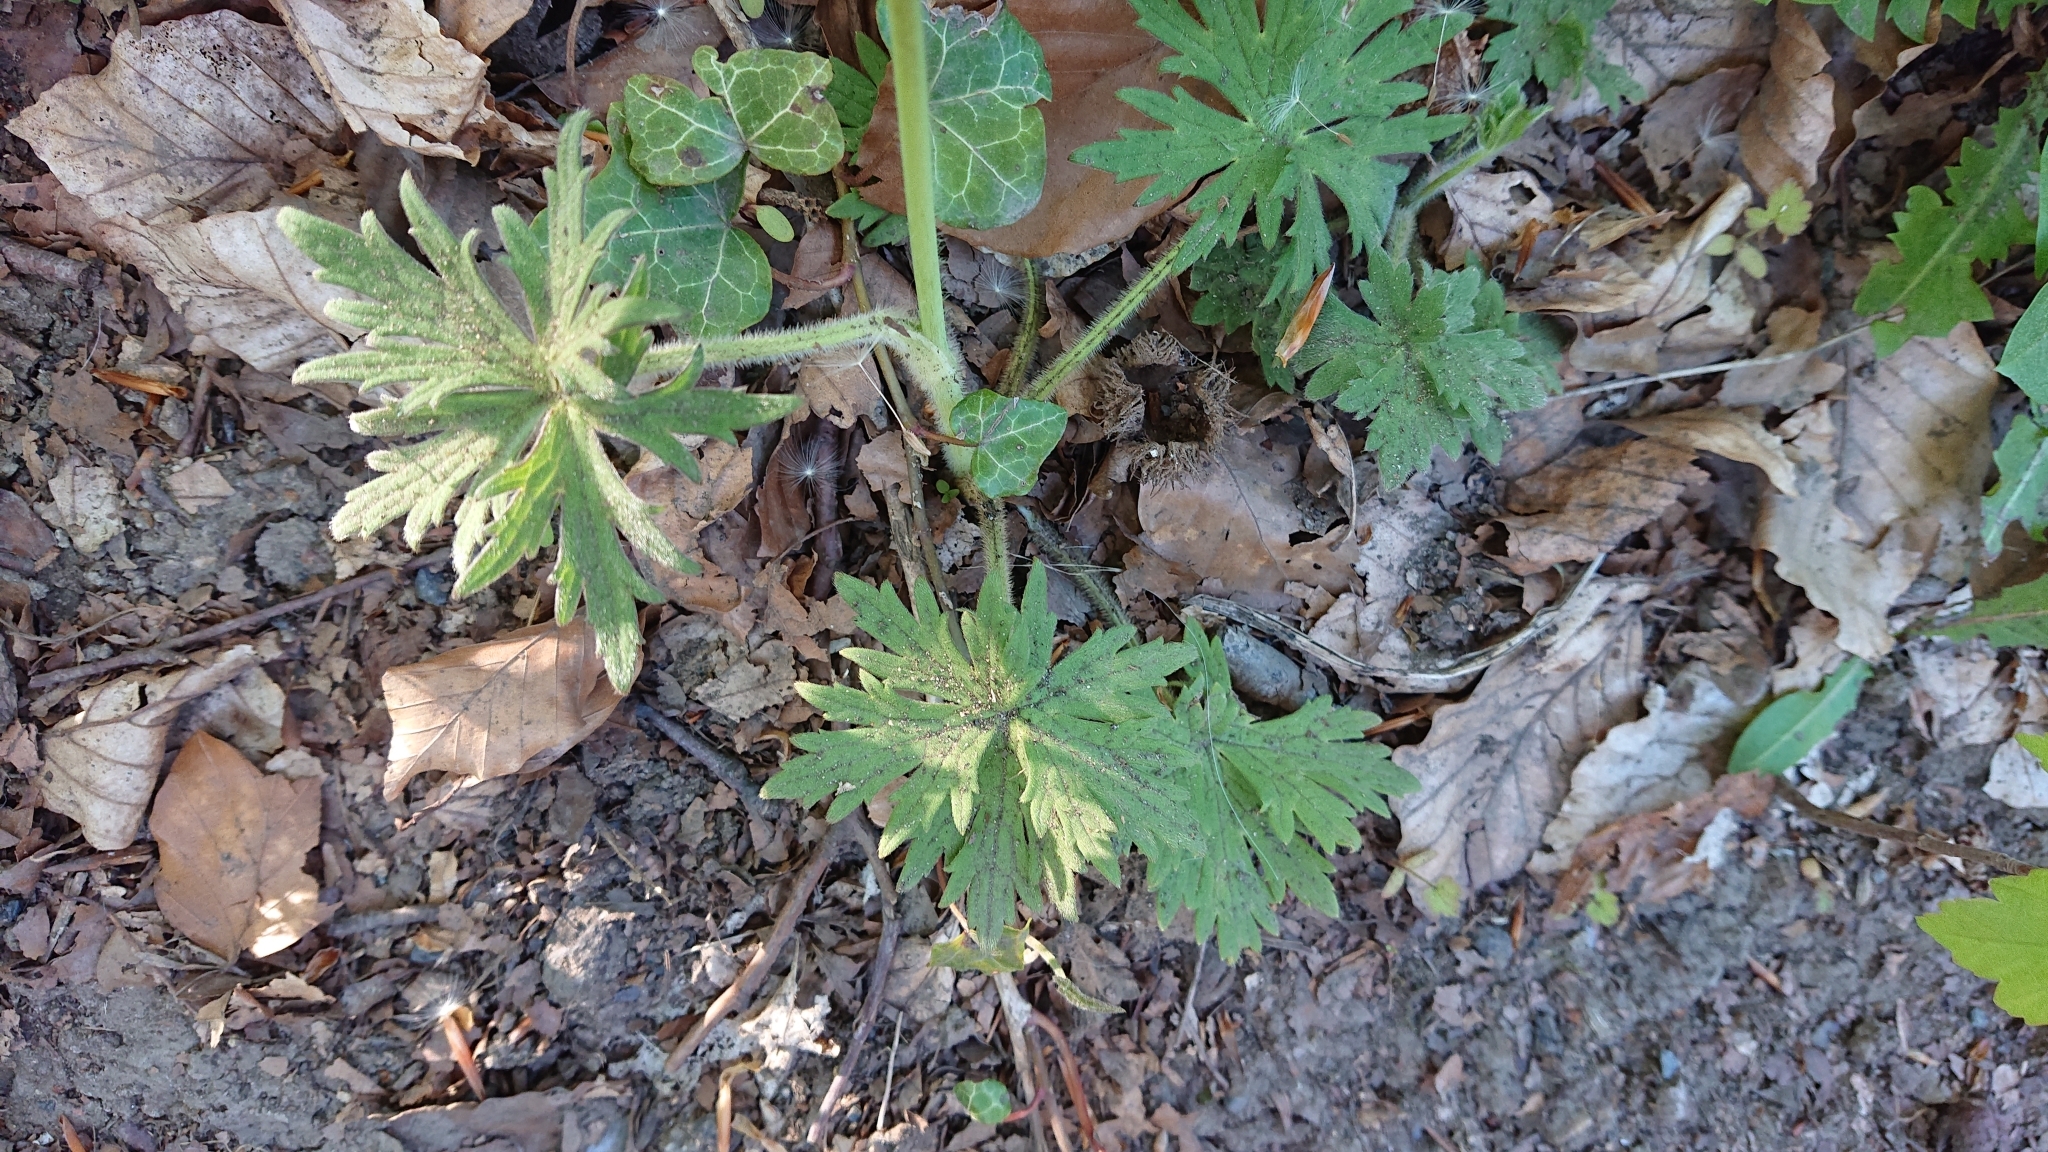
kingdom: Plantae
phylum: Tracheophyta
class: Magnoliopsida
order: Ranunculales
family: Ranunculaceae
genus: Ranunculus
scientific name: Ranunculus acris
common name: Meadow buttercup
